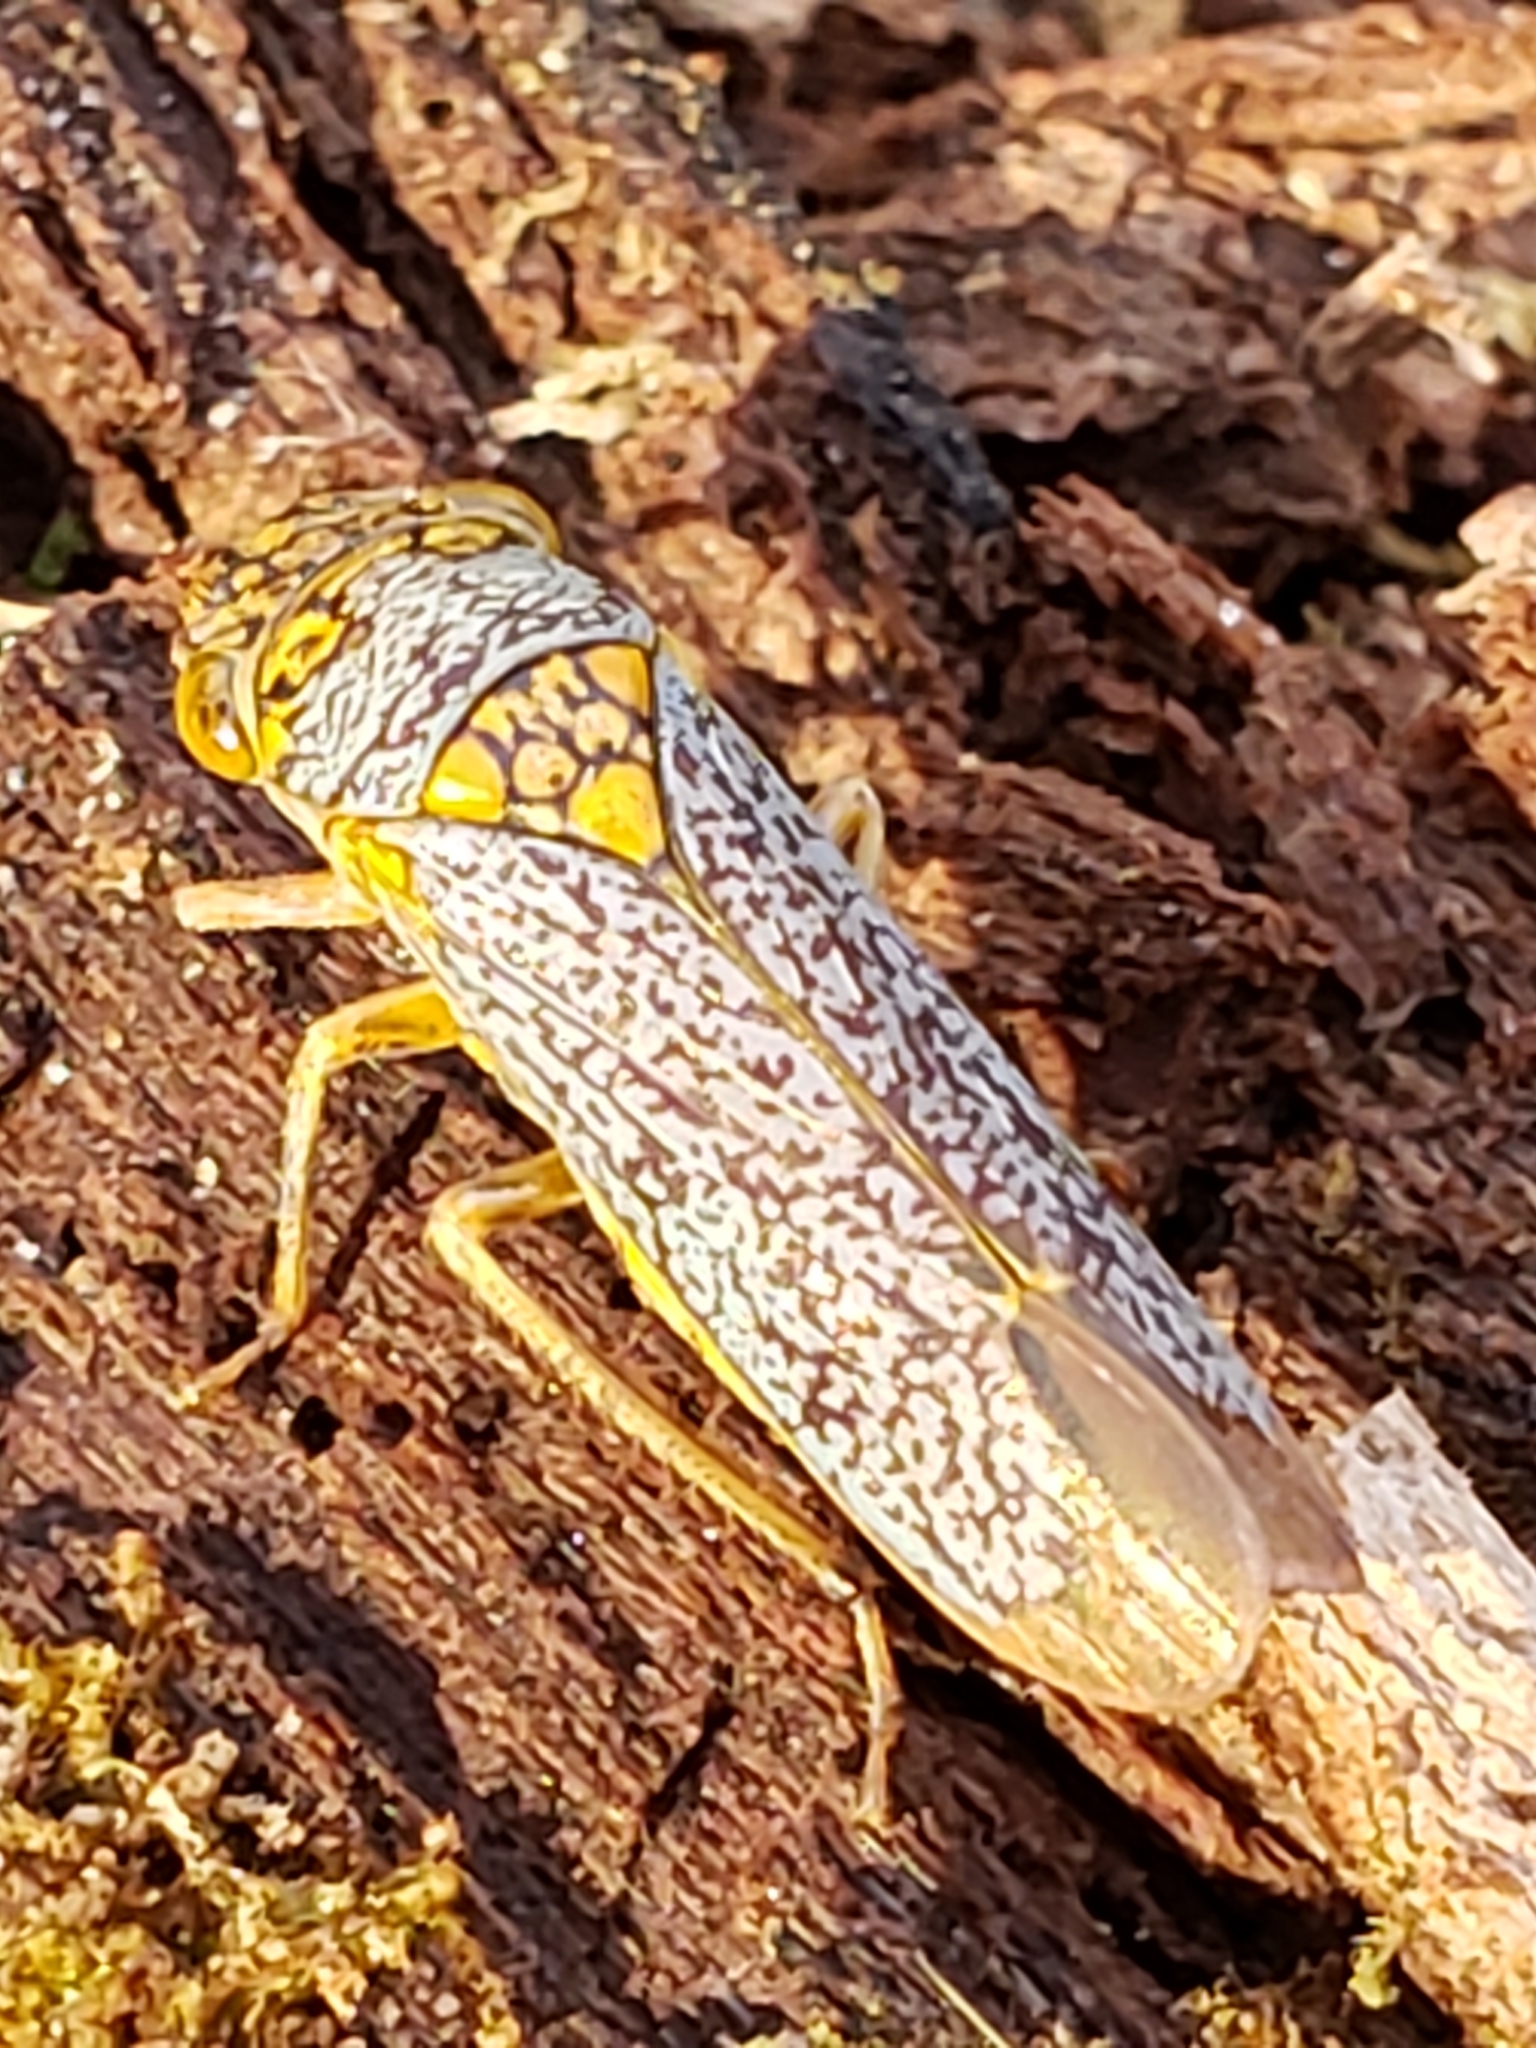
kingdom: Animalia
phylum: Arthropoda
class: Insecta
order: Hemiptera
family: Cicadellidae
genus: Oncometopia
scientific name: Oncometopia orbona
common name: Broad-headed sharpshooter
